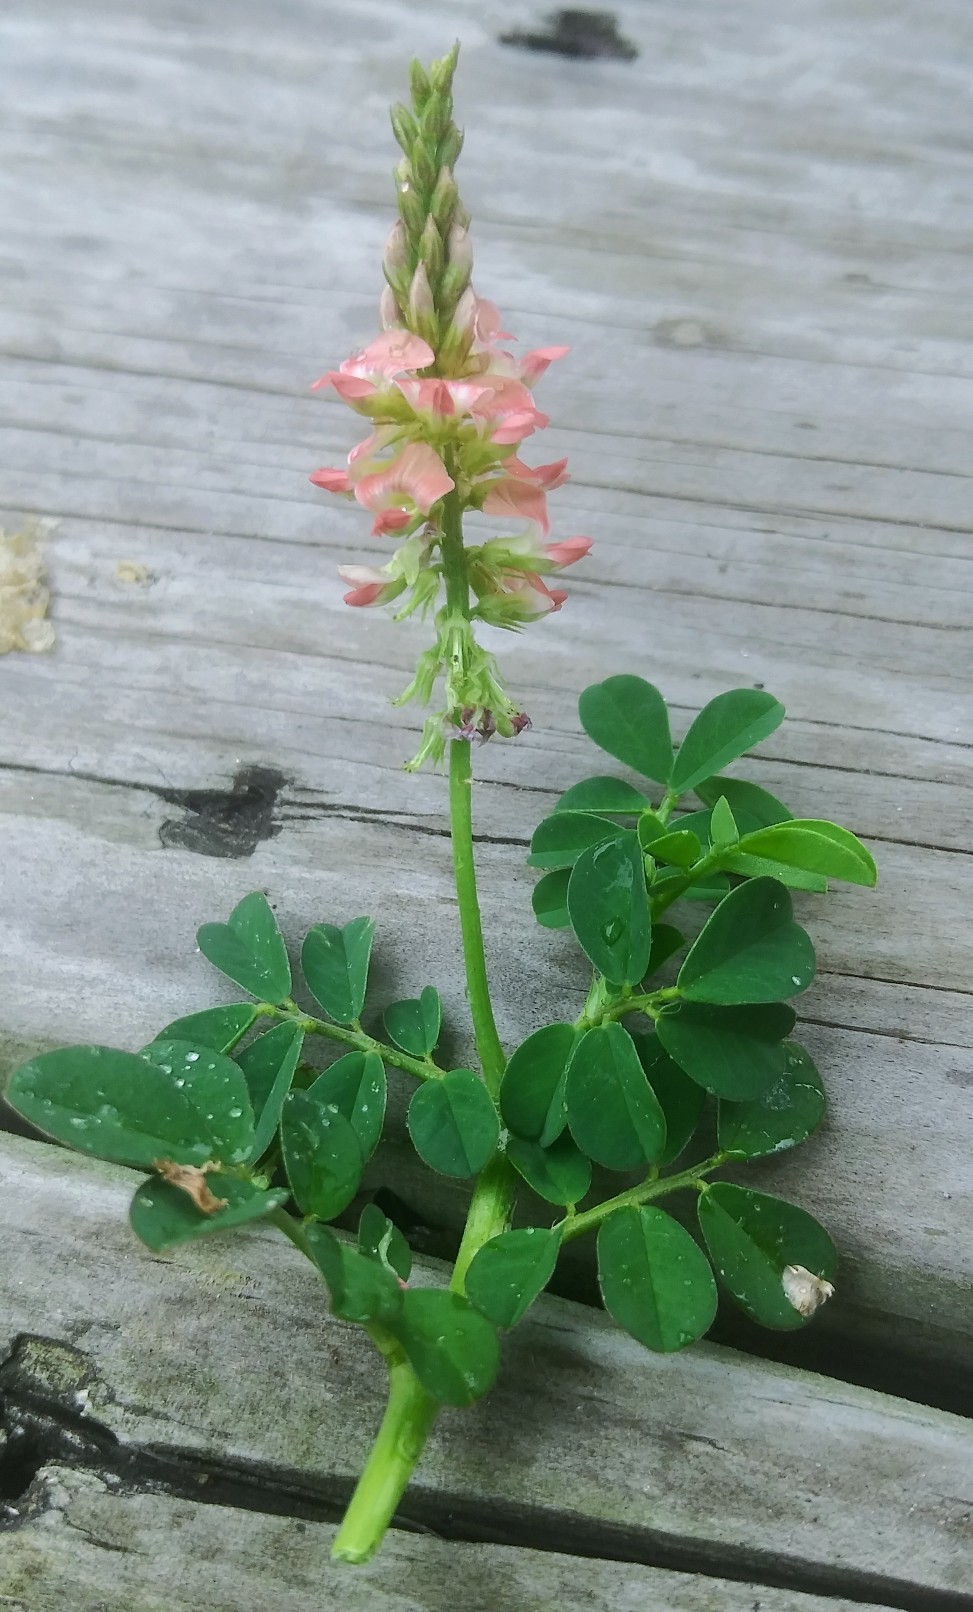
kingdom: Plantae
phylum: Tracheophyta
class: Magnoliopsida
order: Fabales
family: Fabaceae
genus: Indigofera
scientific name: Indigofera spicata
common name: Creeping indigo
